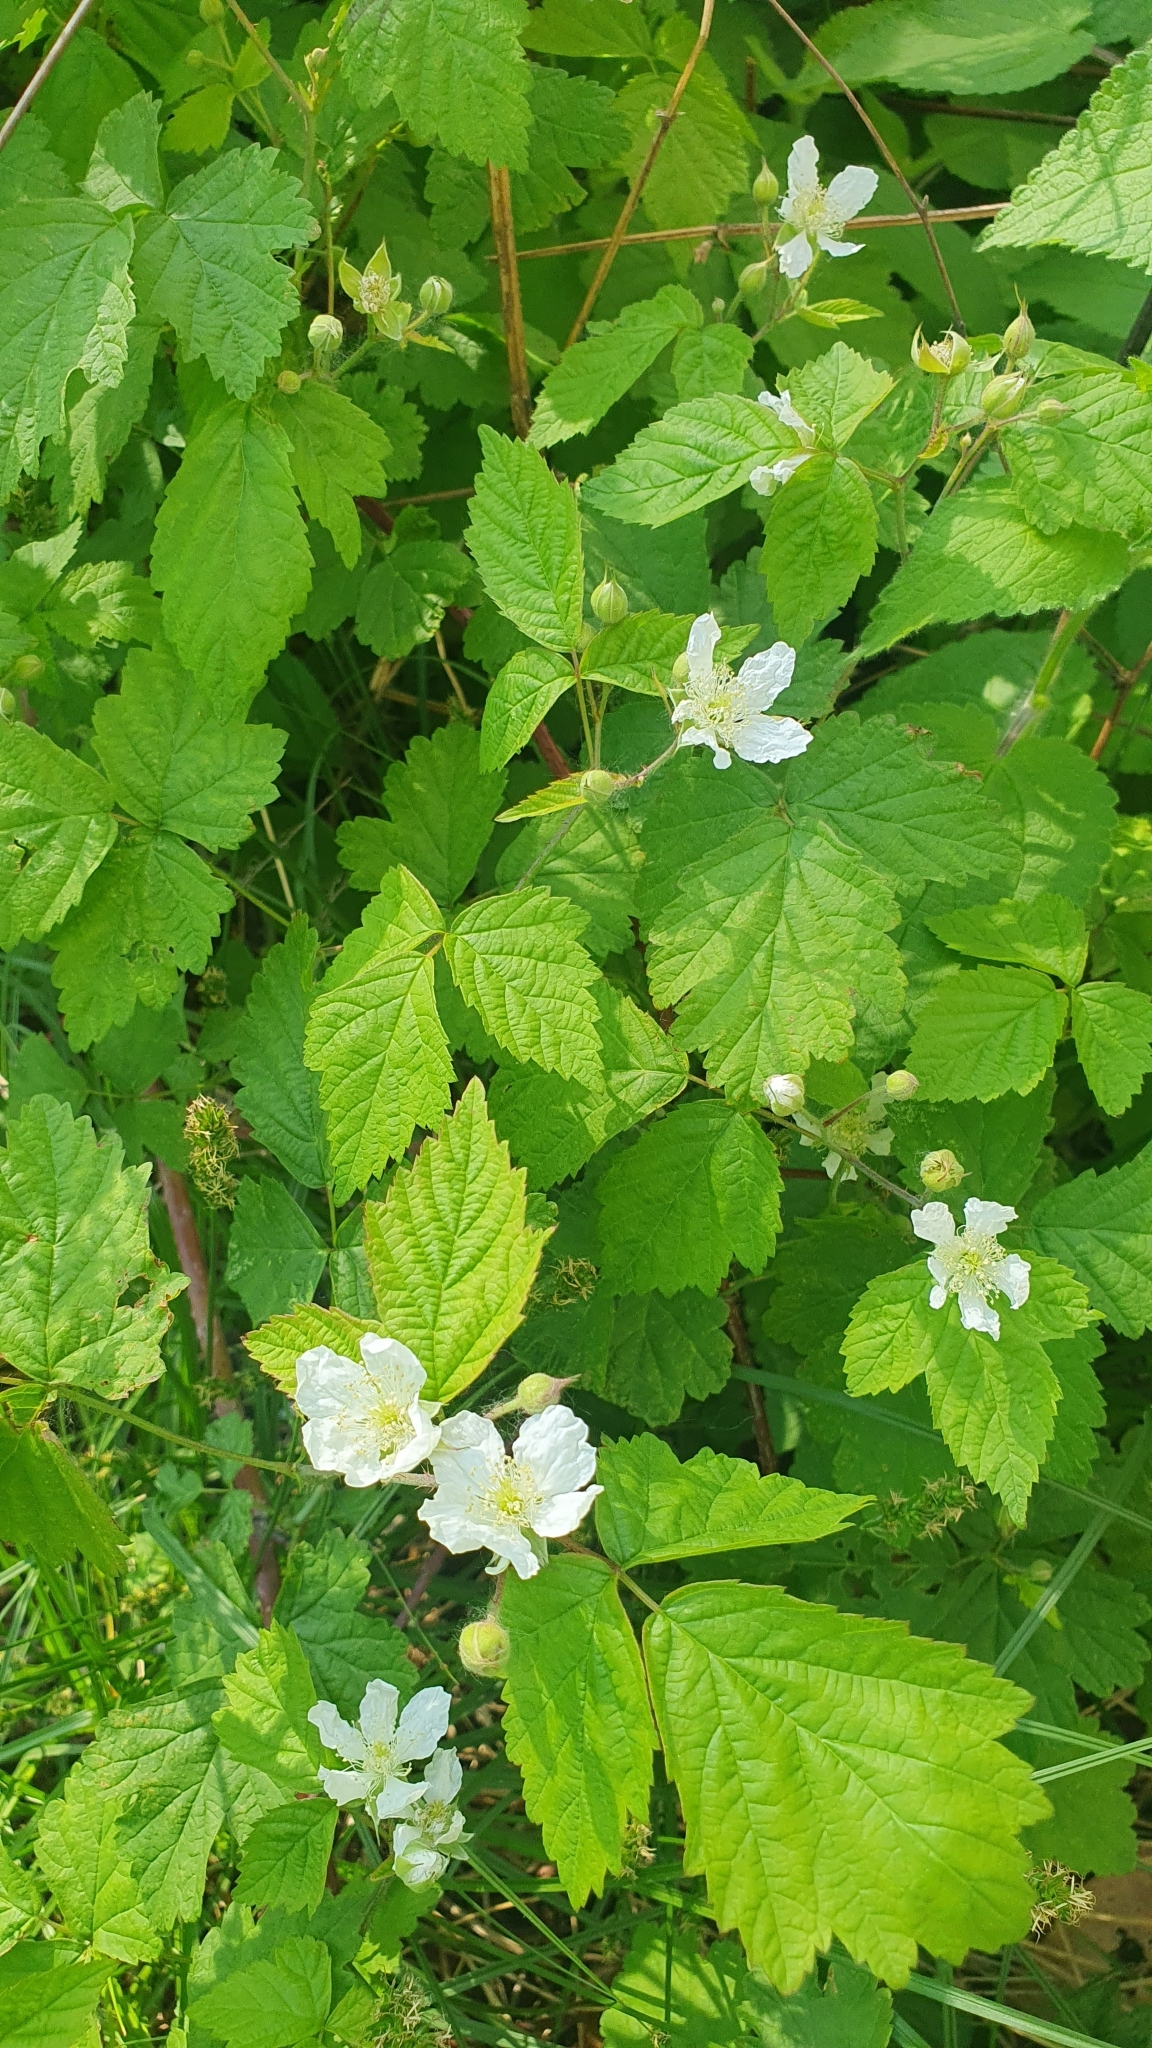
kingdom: Plantae
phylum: Tracheophyta
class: Magnoliopsida
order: Rosales
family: Rosaceae
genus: Rubus
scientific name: Rubus caesius
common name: Dewberry
